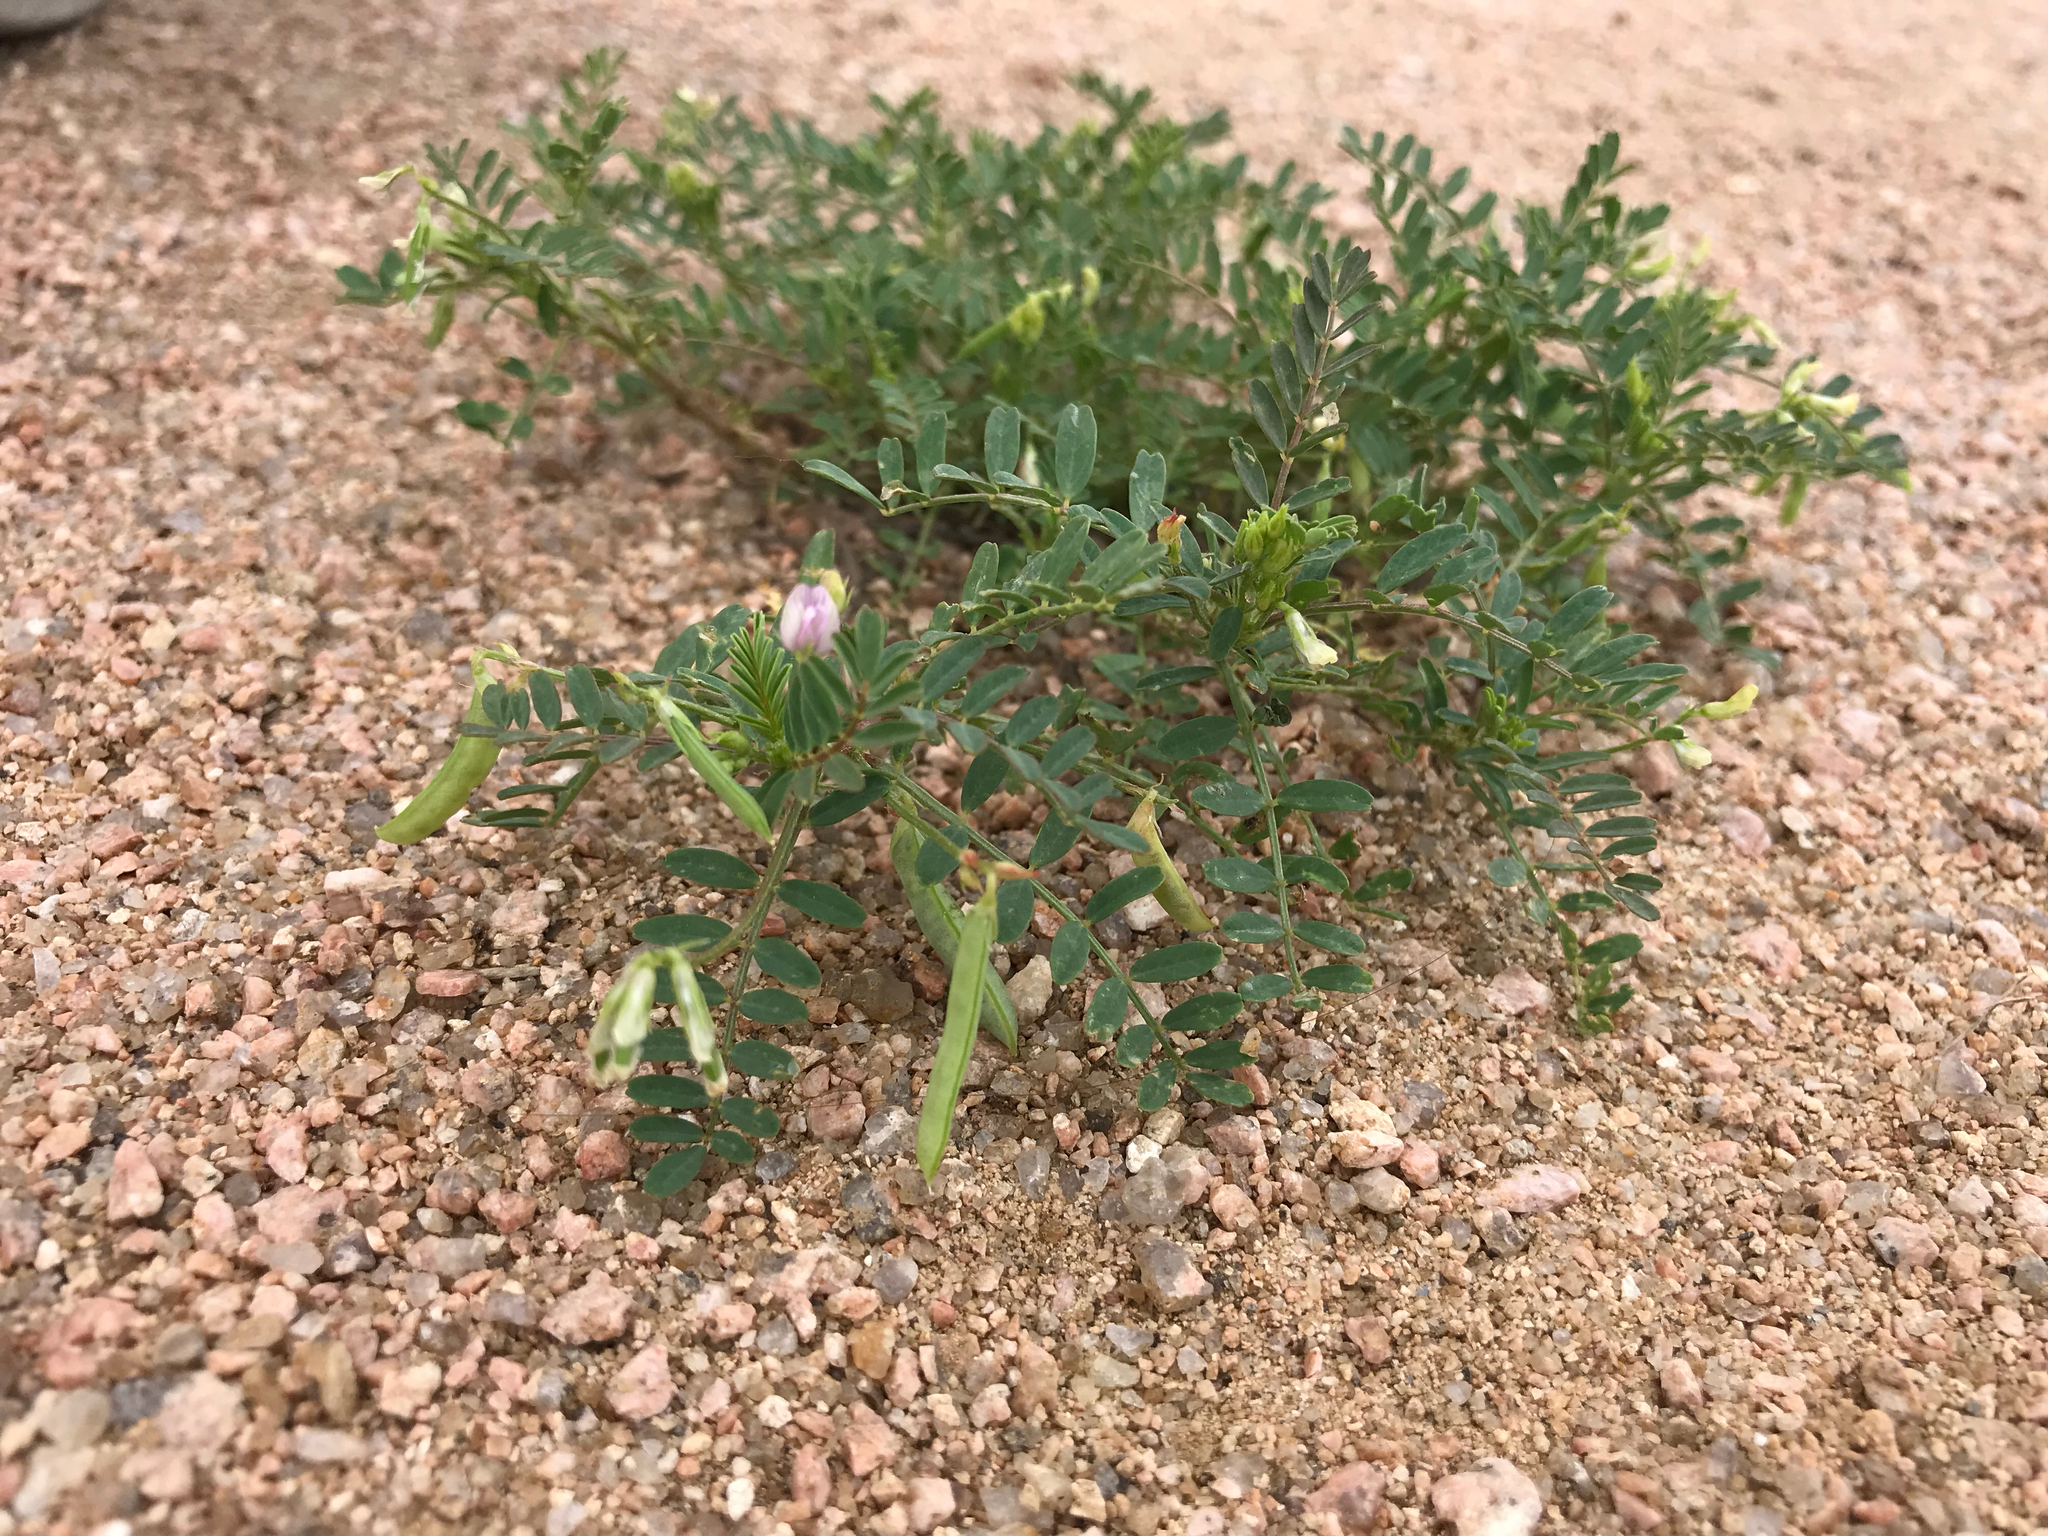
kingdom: Plantae
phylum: Tracheophyta
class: Magnoliopsida
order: Fabales
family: Fabaceae
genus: Astragalus
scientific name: Astragalus nuttallianus
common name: Smallflowered milkvetch
